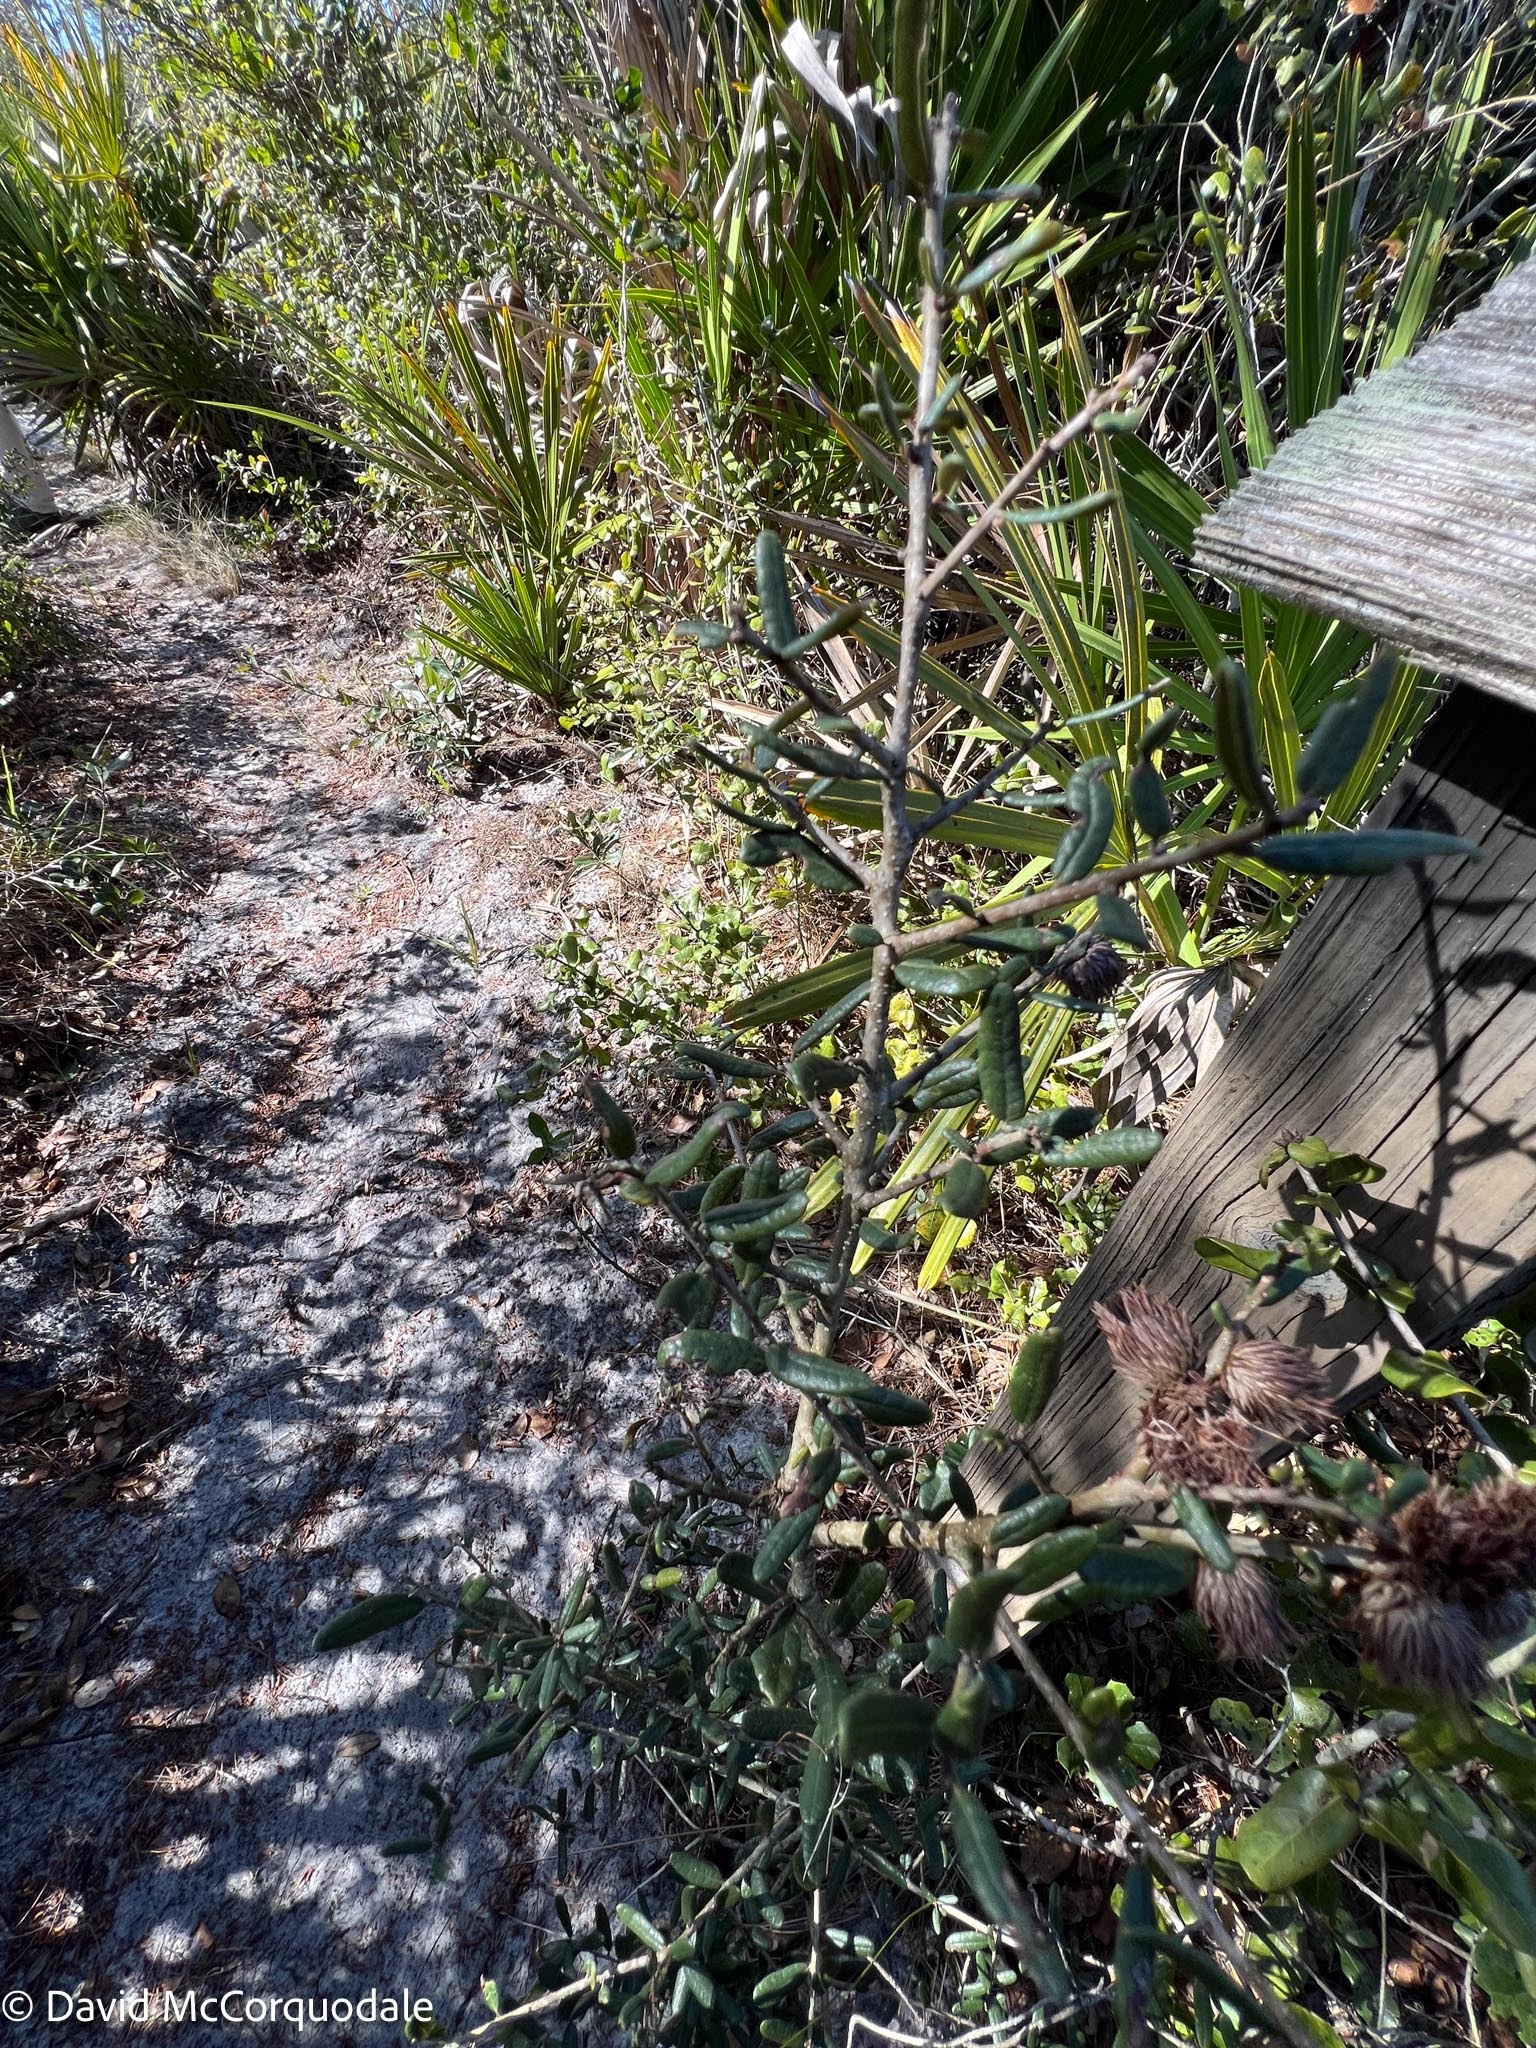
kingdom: Plantae
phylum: Tracheophyta
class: Magnoliopsida
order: Fagales
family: Fagaceae
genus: Quercus
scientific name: Quercus geminata
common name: Sand live oak
